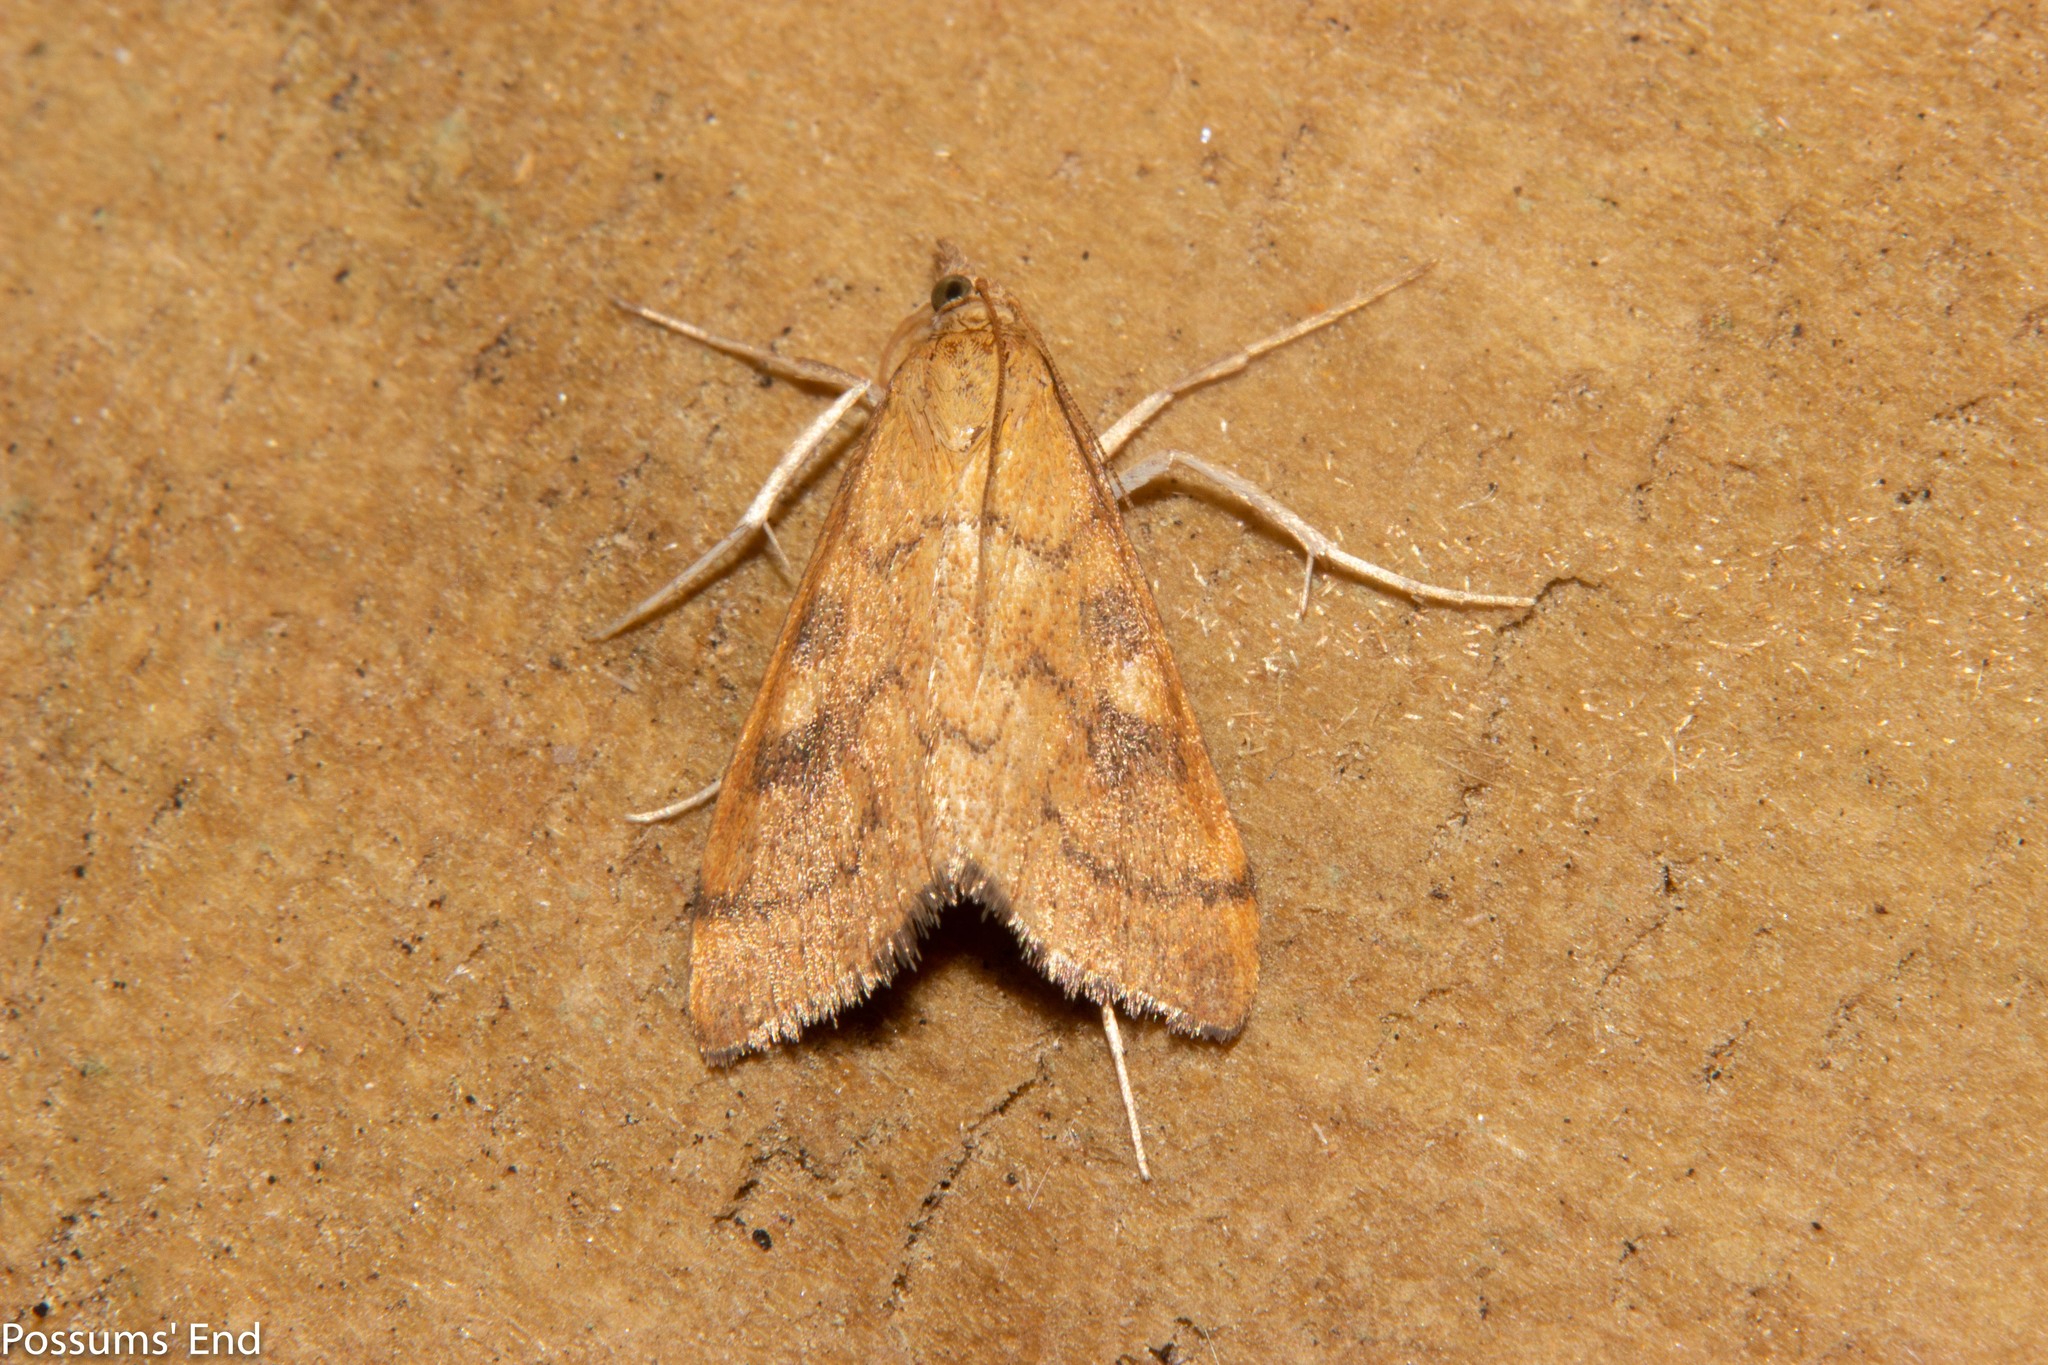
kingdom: Animalia
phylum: Arthropoda
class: Insecta
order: Lepidoptera
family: Crambidae
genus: Udea
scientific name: Udea Mnesictena flavidalis
